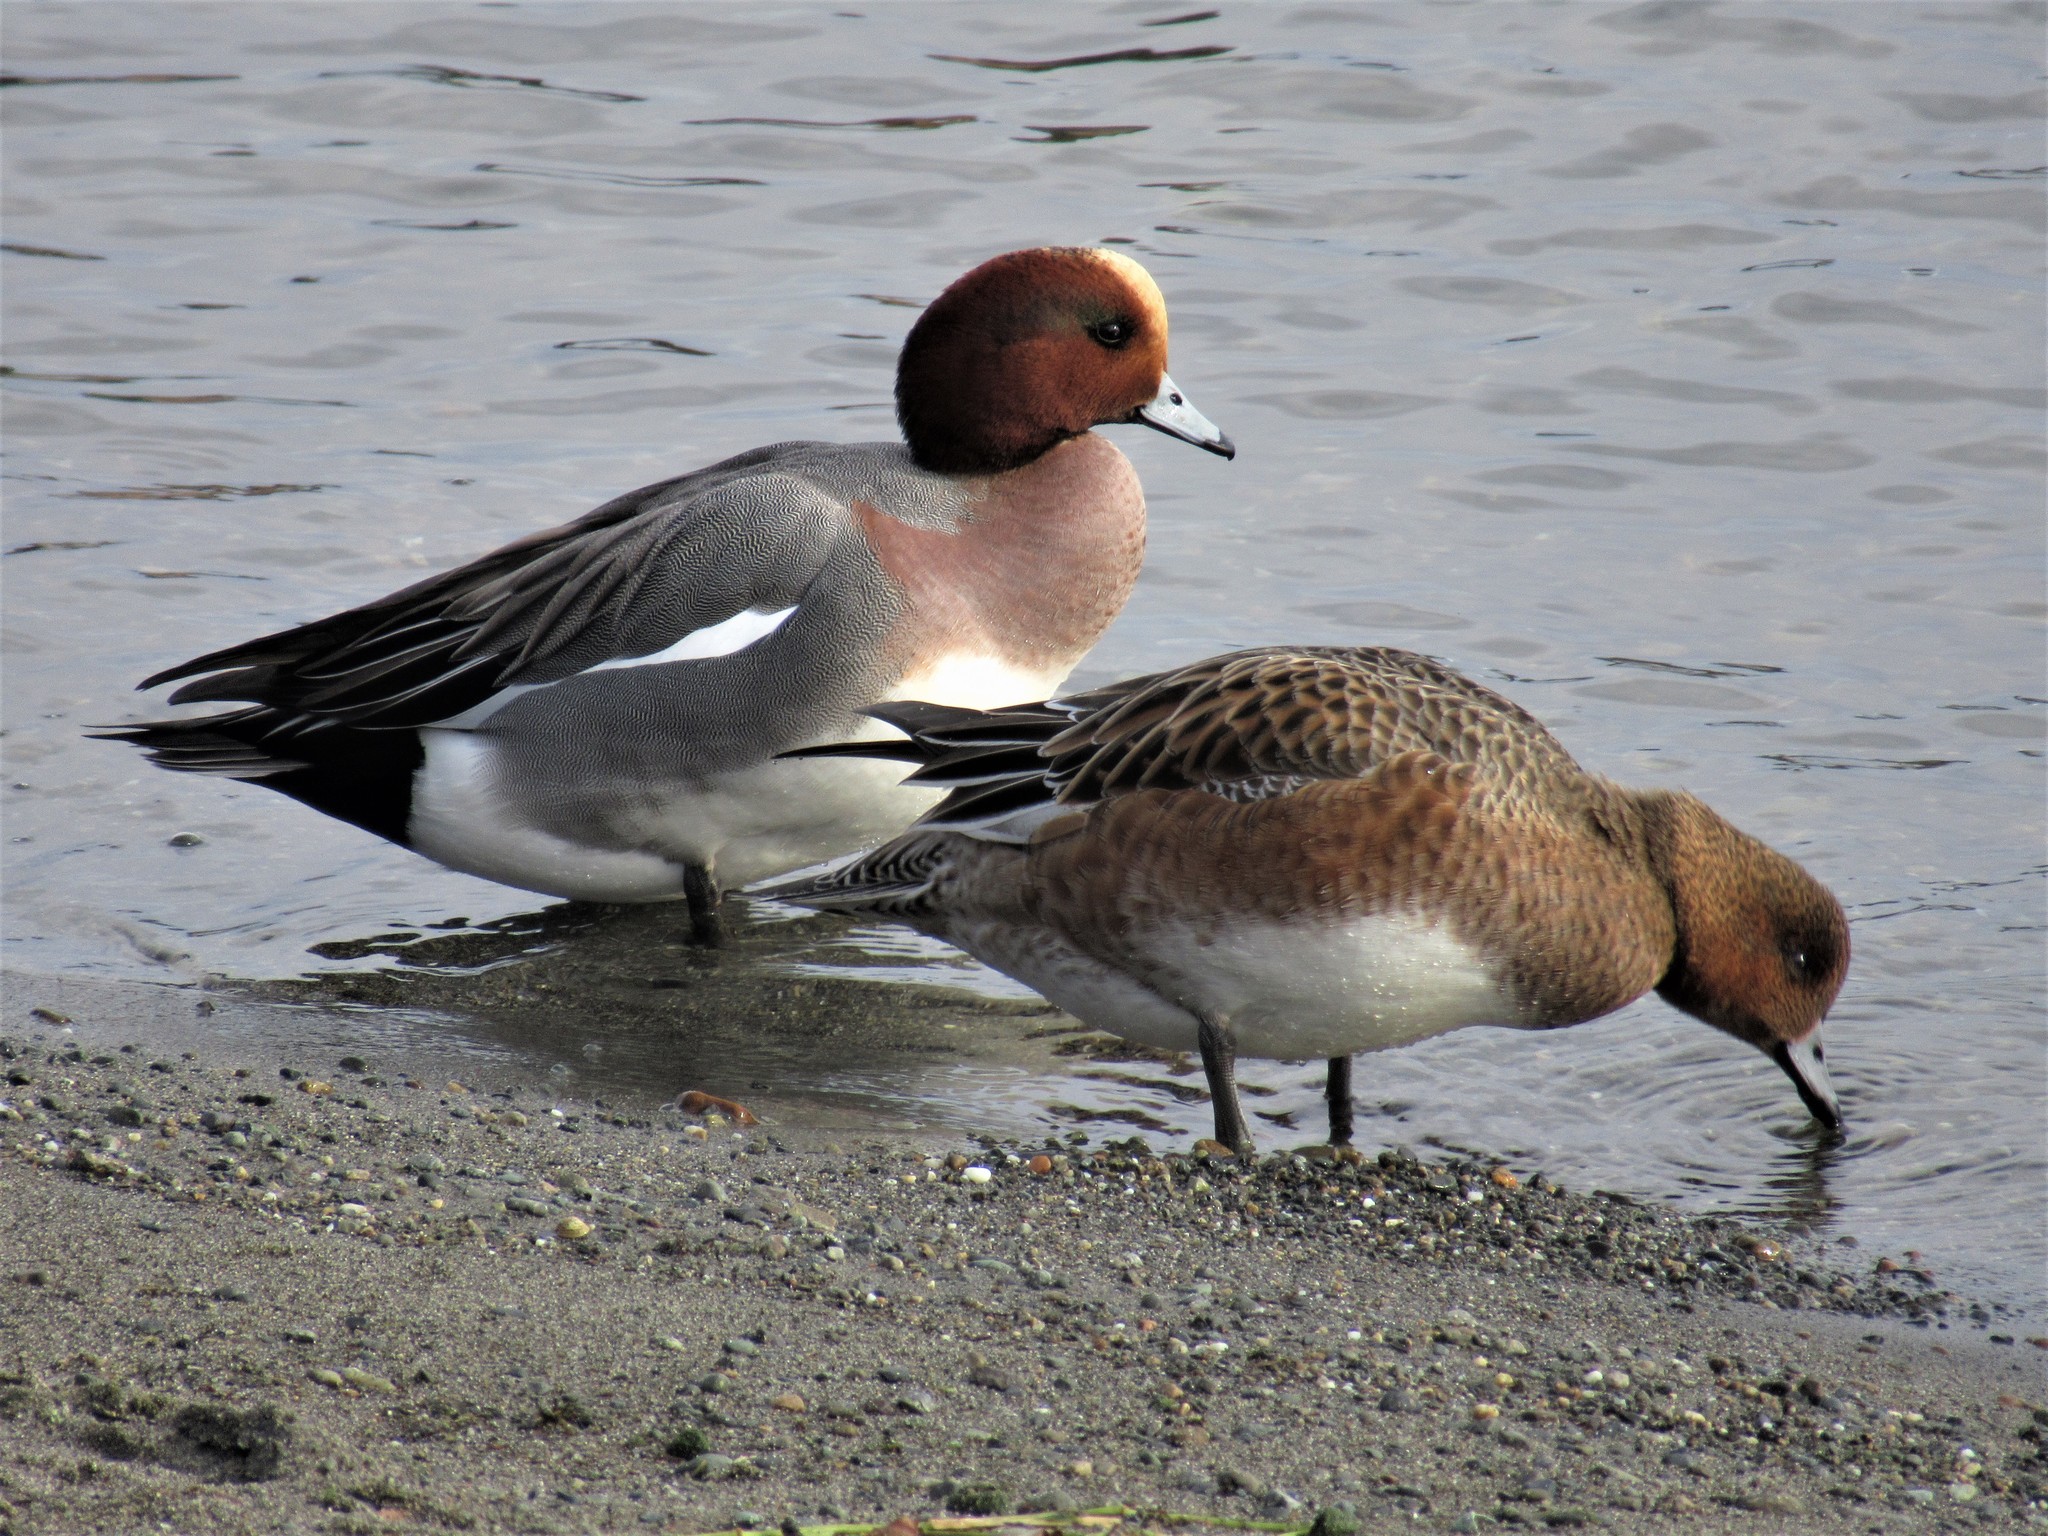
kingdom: Animalia
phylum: Chordata
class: Aves
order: Anseriformes
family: Anatidae
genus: Mareca
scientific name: Mareca penelope
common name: Eurasian wigeon
